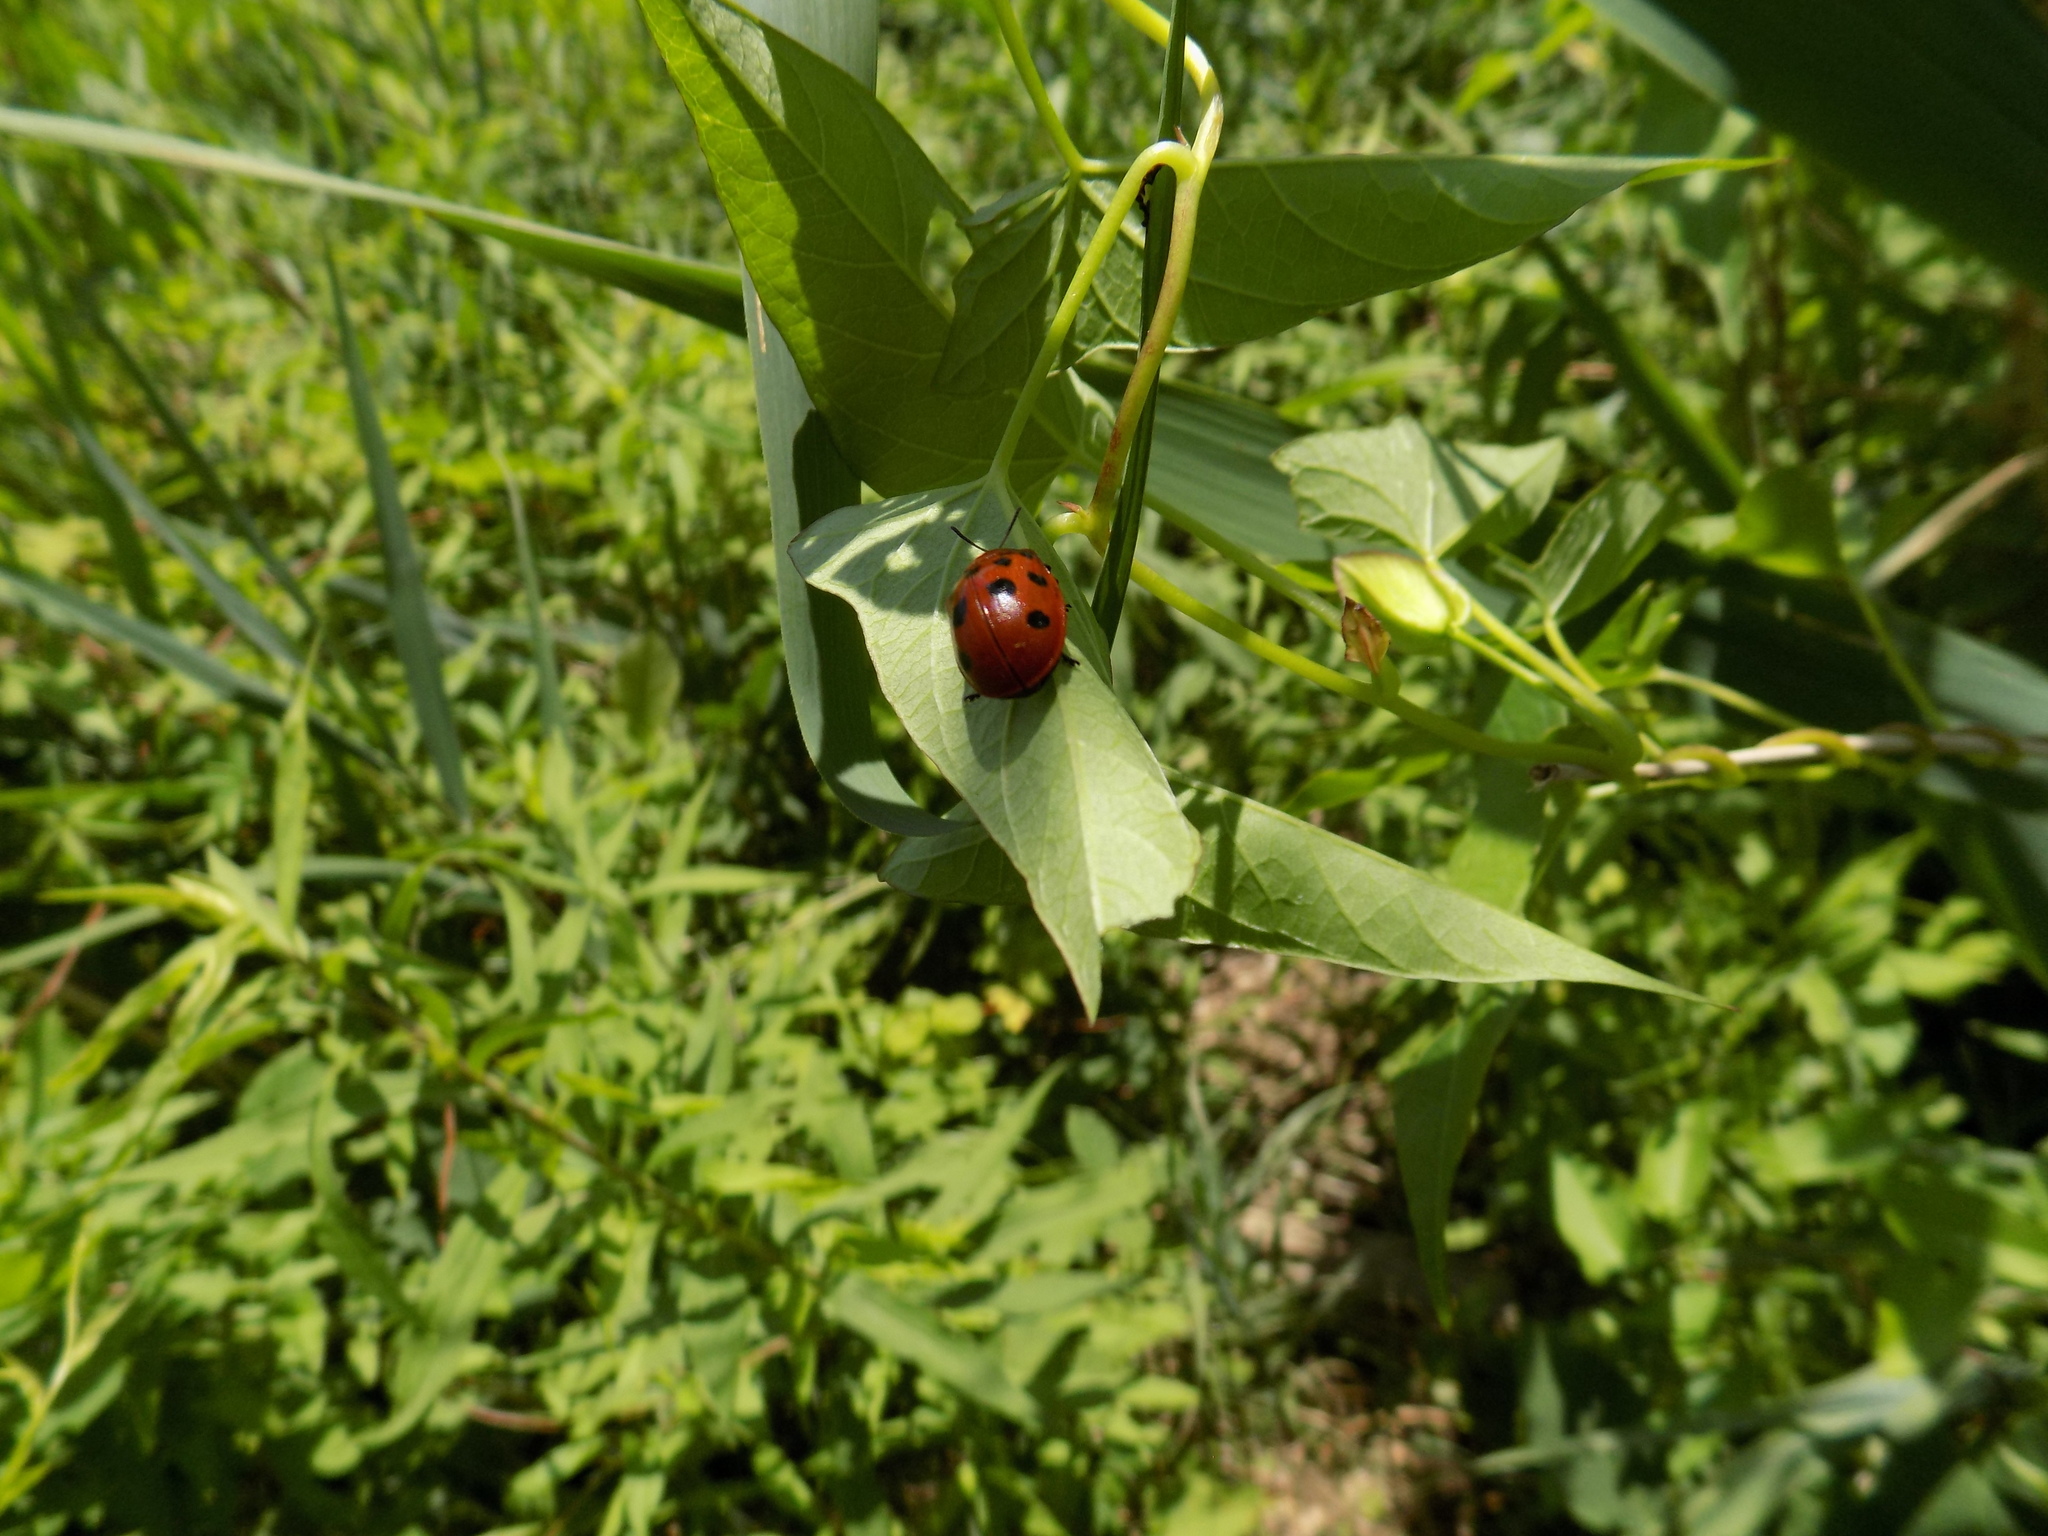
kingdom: Animalia
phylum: Arthropoda
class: Insecta
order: Coleoptera
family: Chrysomelidae
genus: Chelymorpha
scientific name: Chelymorpha cassidea
